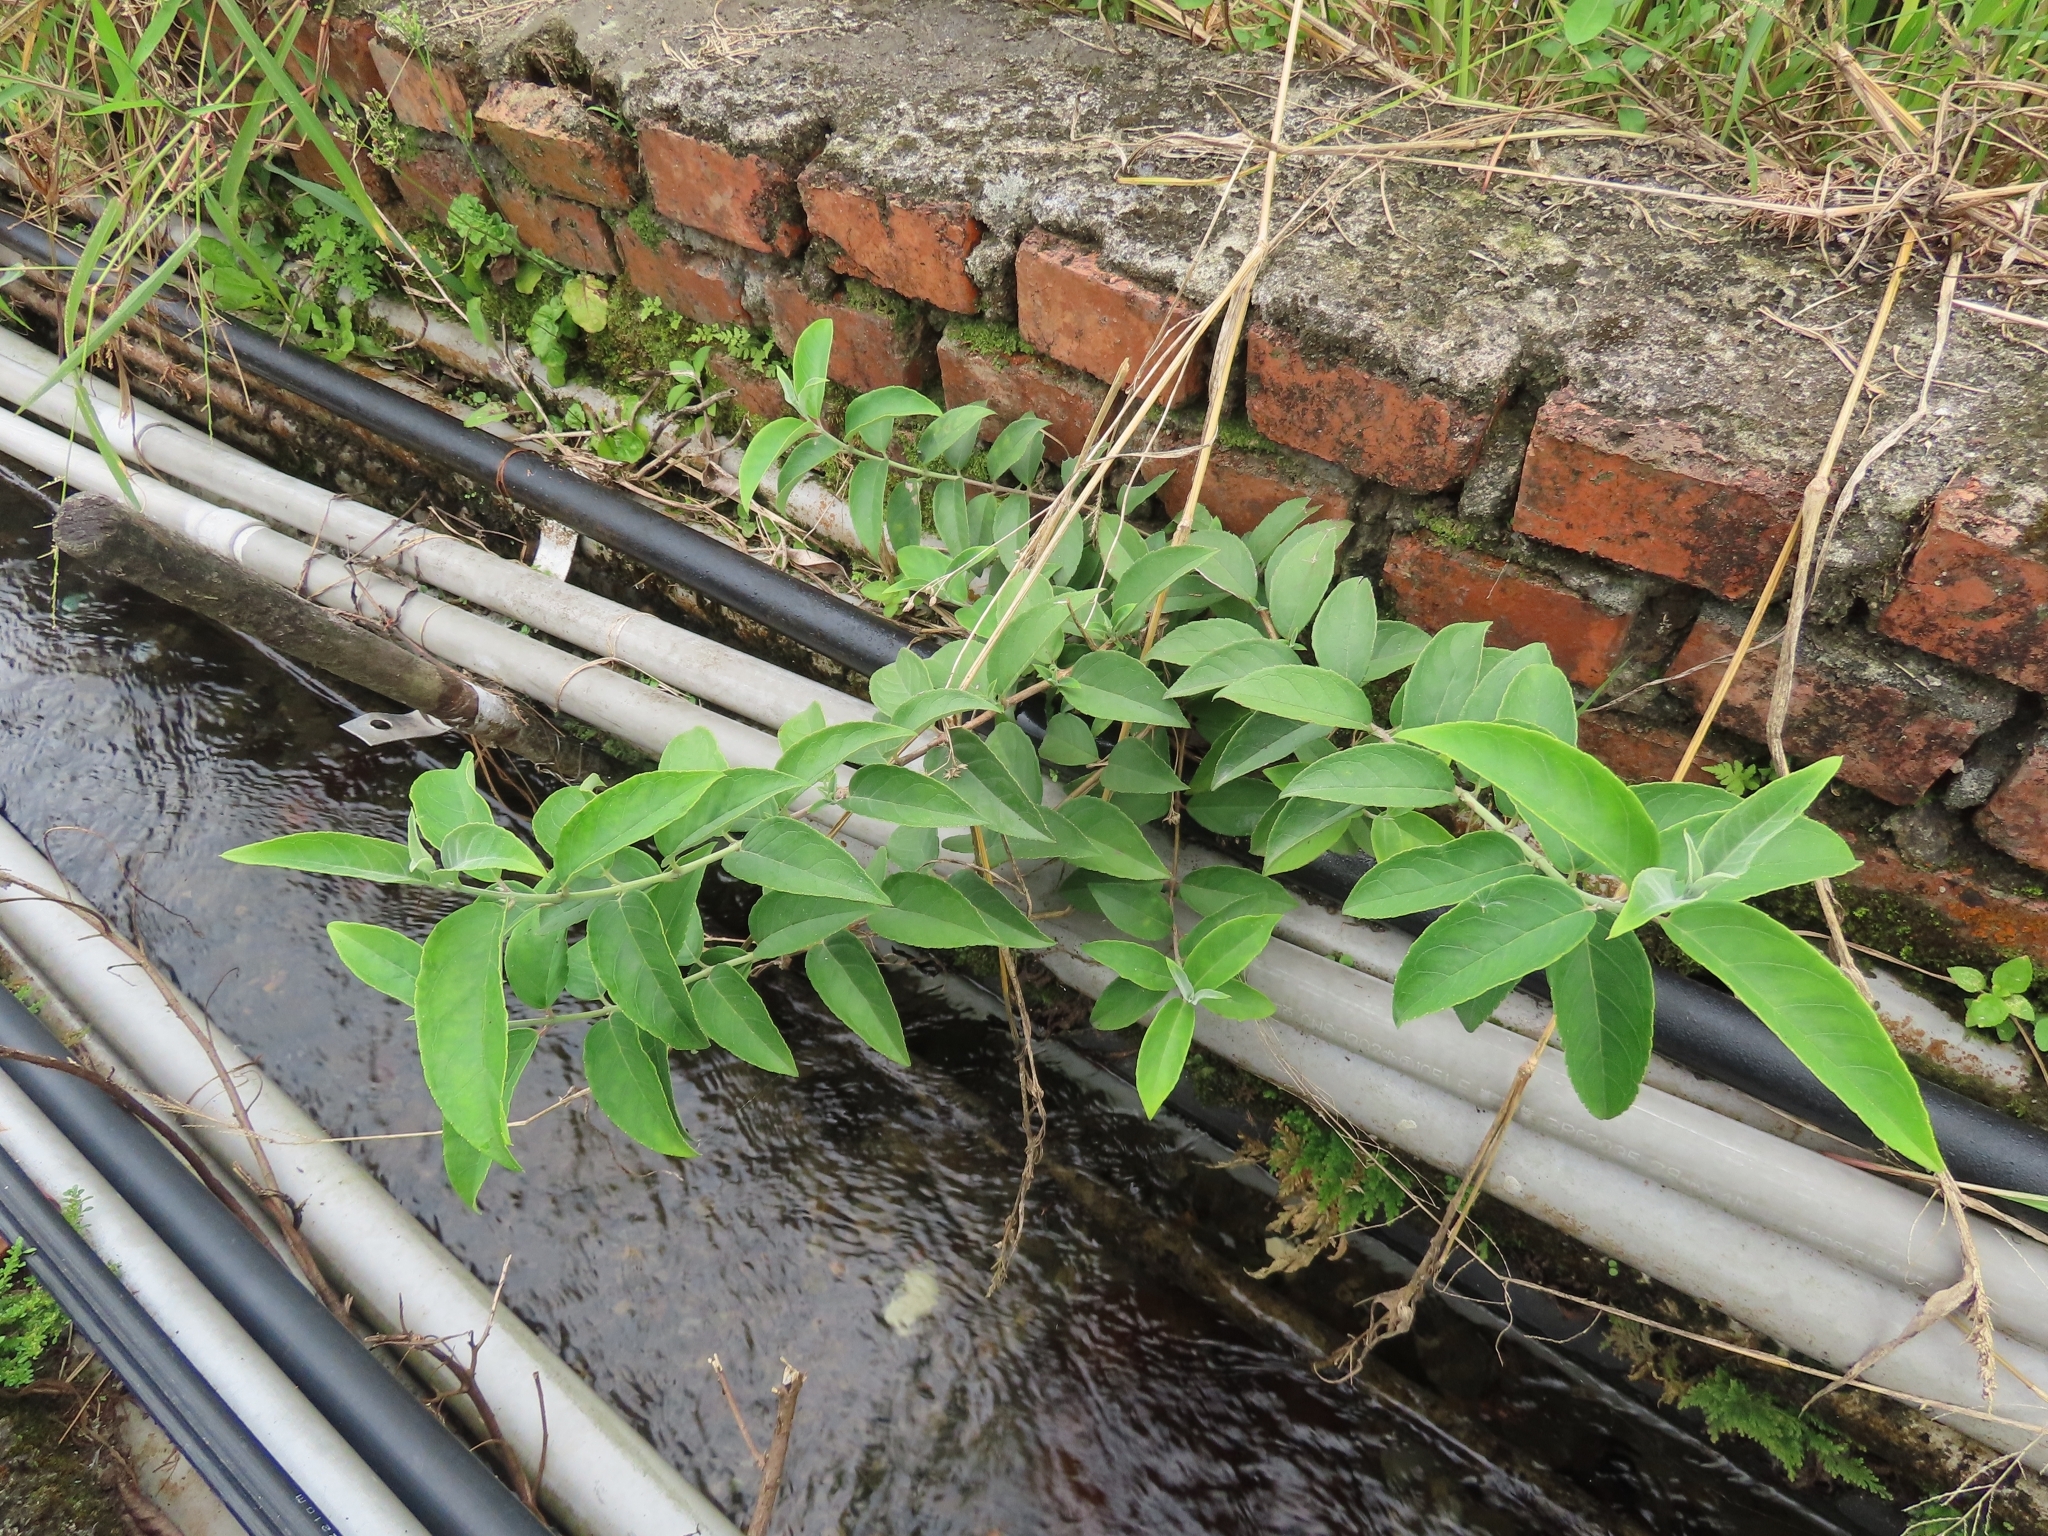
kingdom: Plantae
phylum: Tracheophyta
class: Magnoliopsida
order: Cornales
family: Hydrangeaceae
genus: Deutzia
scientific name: Deutzia pulchra
